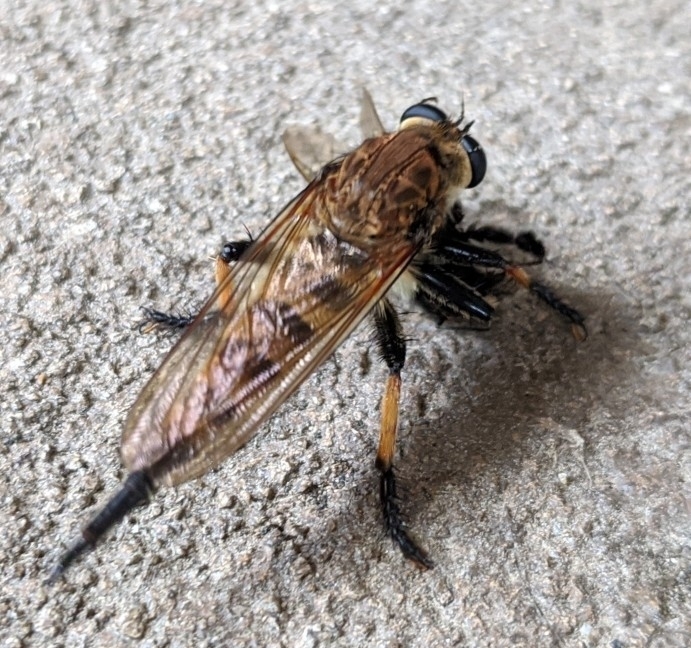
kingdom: Animalia
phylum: Arthropoda
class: Insecta
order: Diptera
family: Asilidae
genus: Promachus
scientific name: Promachus rufipes
